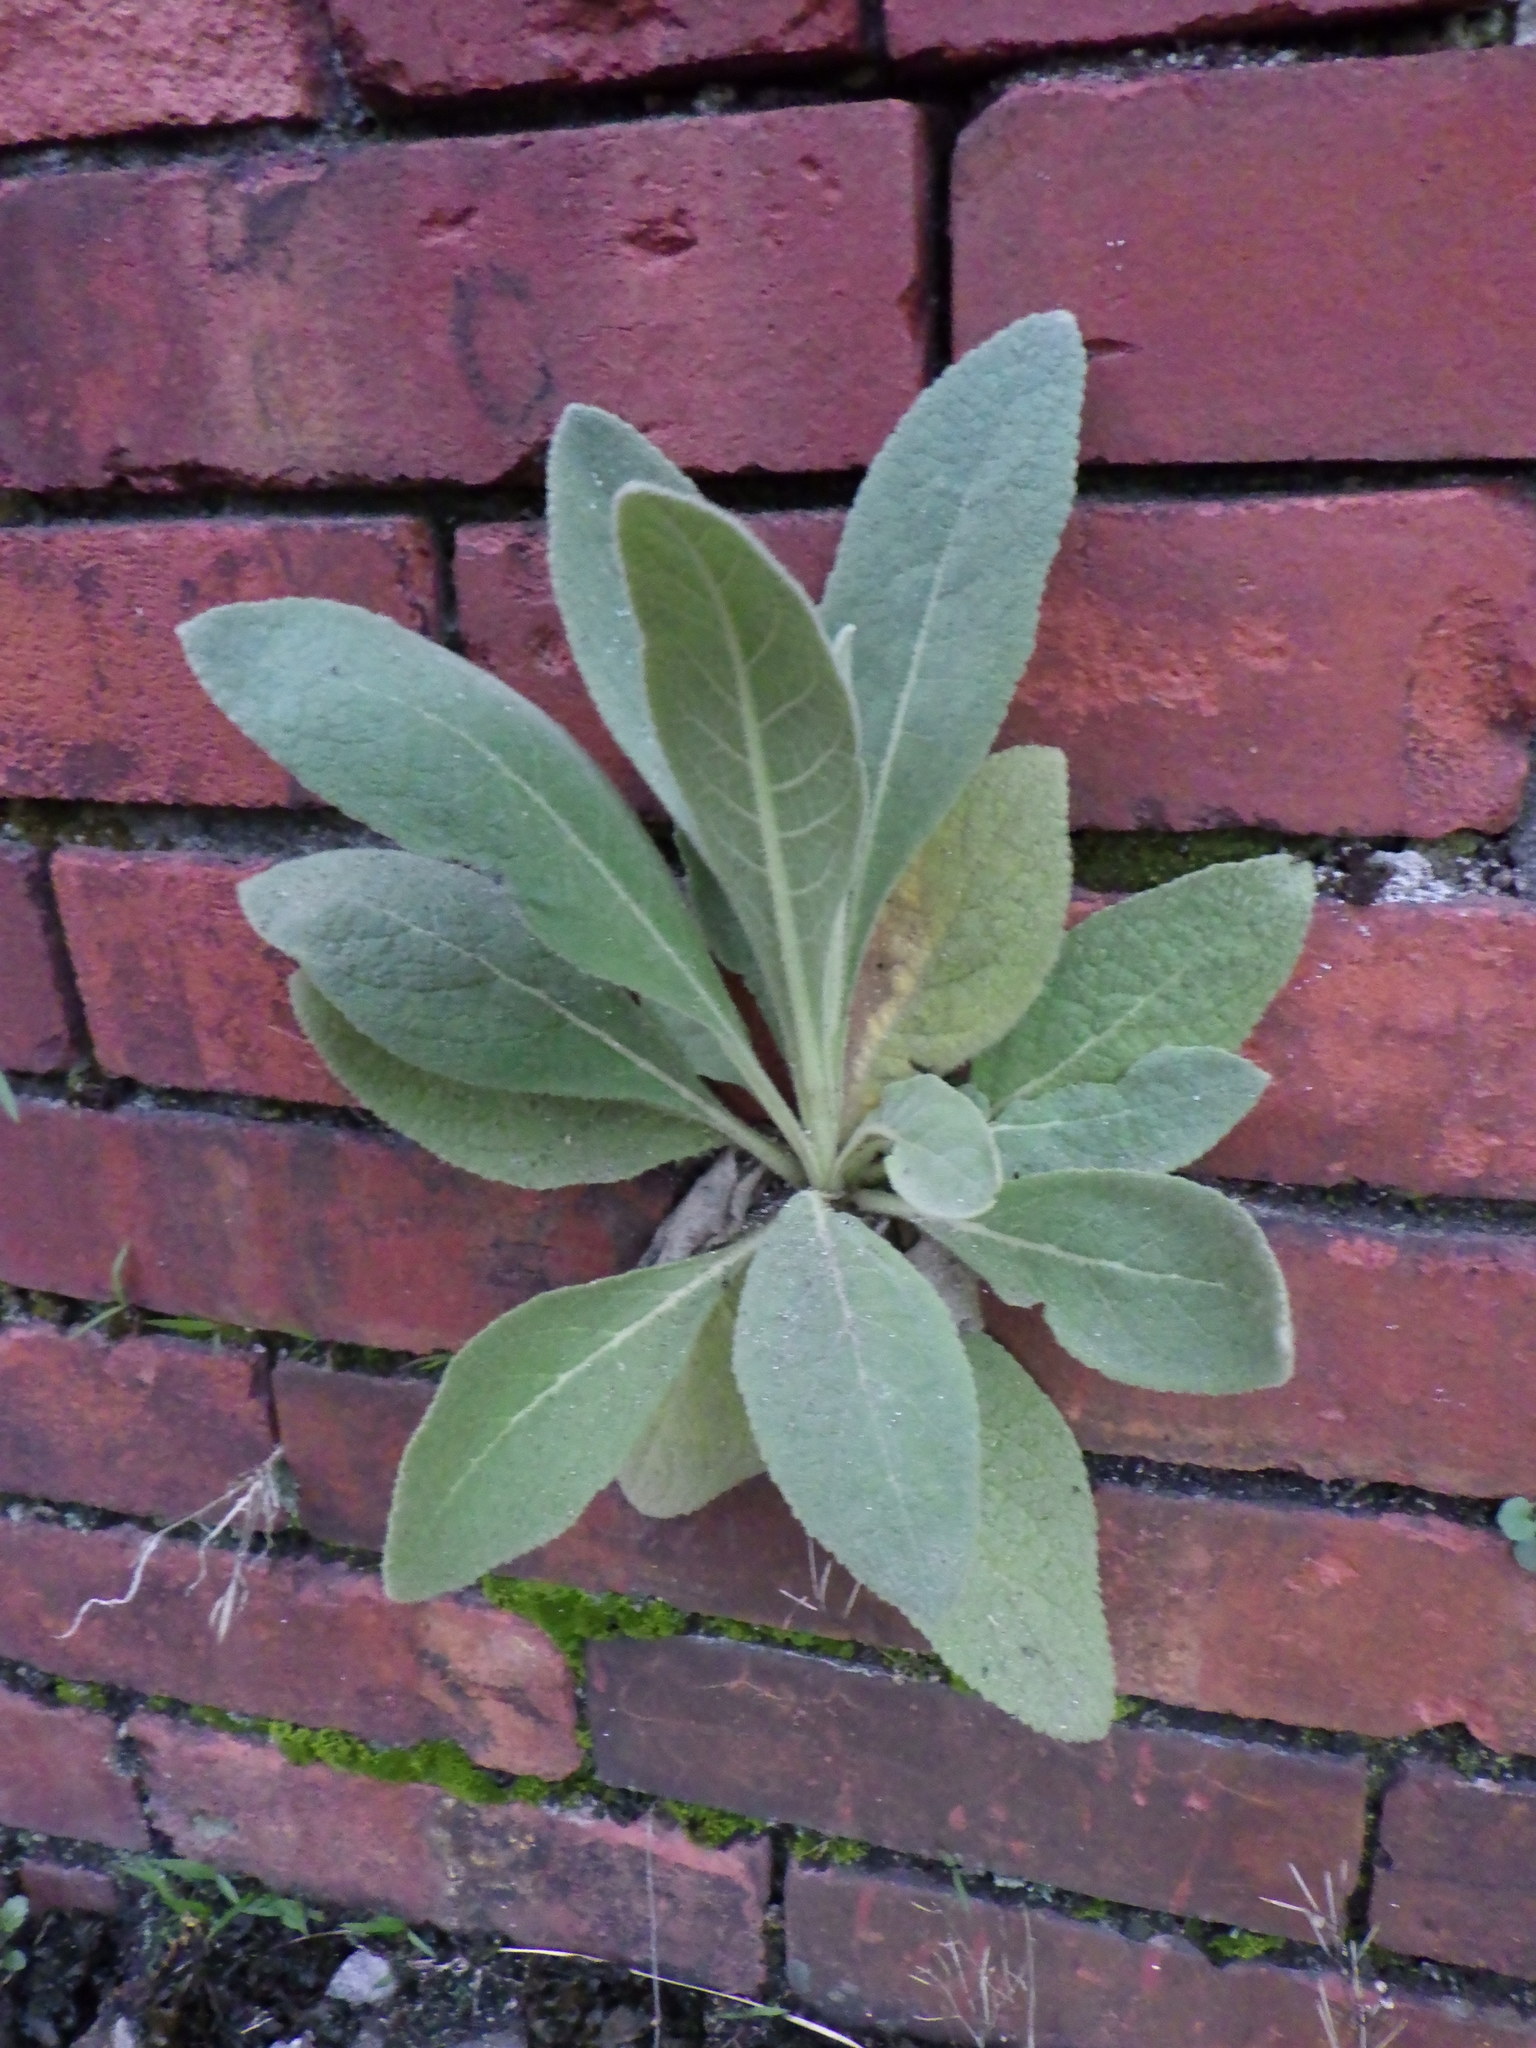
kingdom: Plantae
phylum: Tracheophyta
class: Magnoliopsida
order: Lamiales
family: Scrophulariaceae
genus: Verbascum
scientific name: Verbascum thapsus
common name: Common mullein
